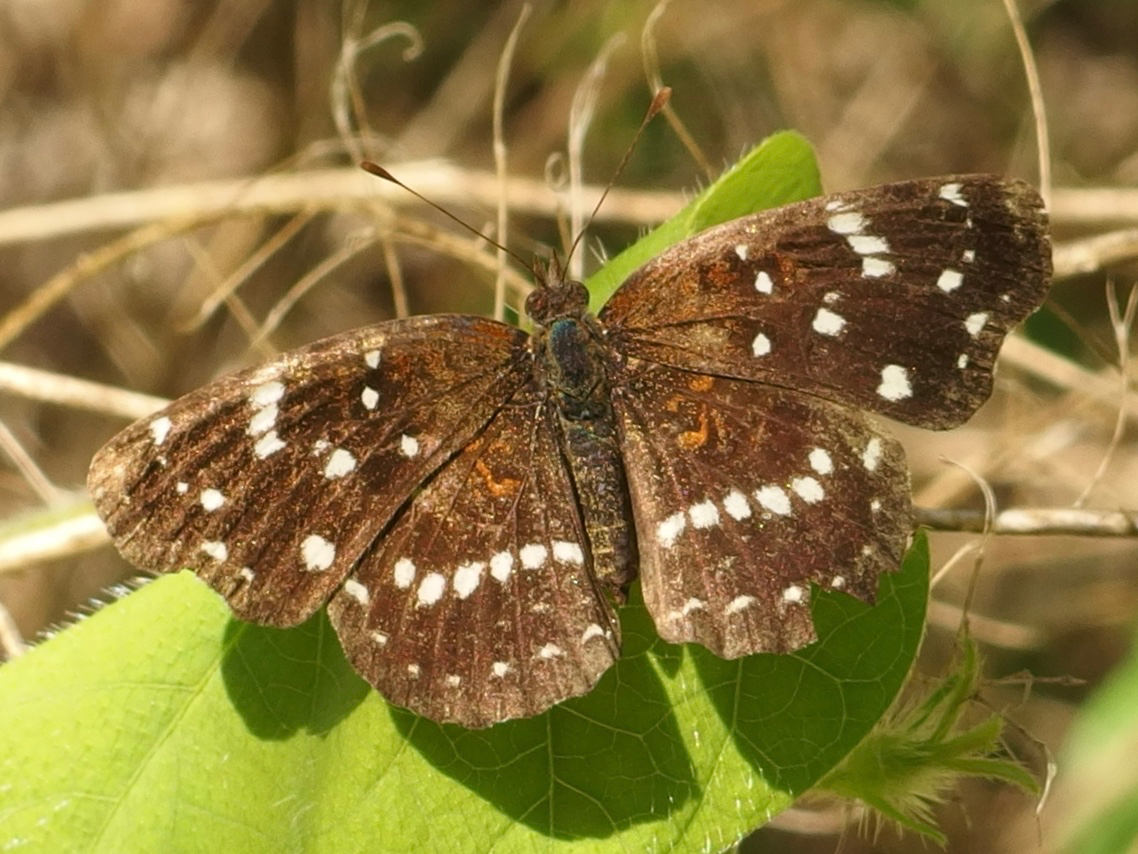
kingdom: Animalia
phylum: Arthropoda
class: Insecta
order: Lepidoptera
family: Nymphalidae
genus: Anthanassa
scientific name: Anthanassa texana
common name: Texan crescent
